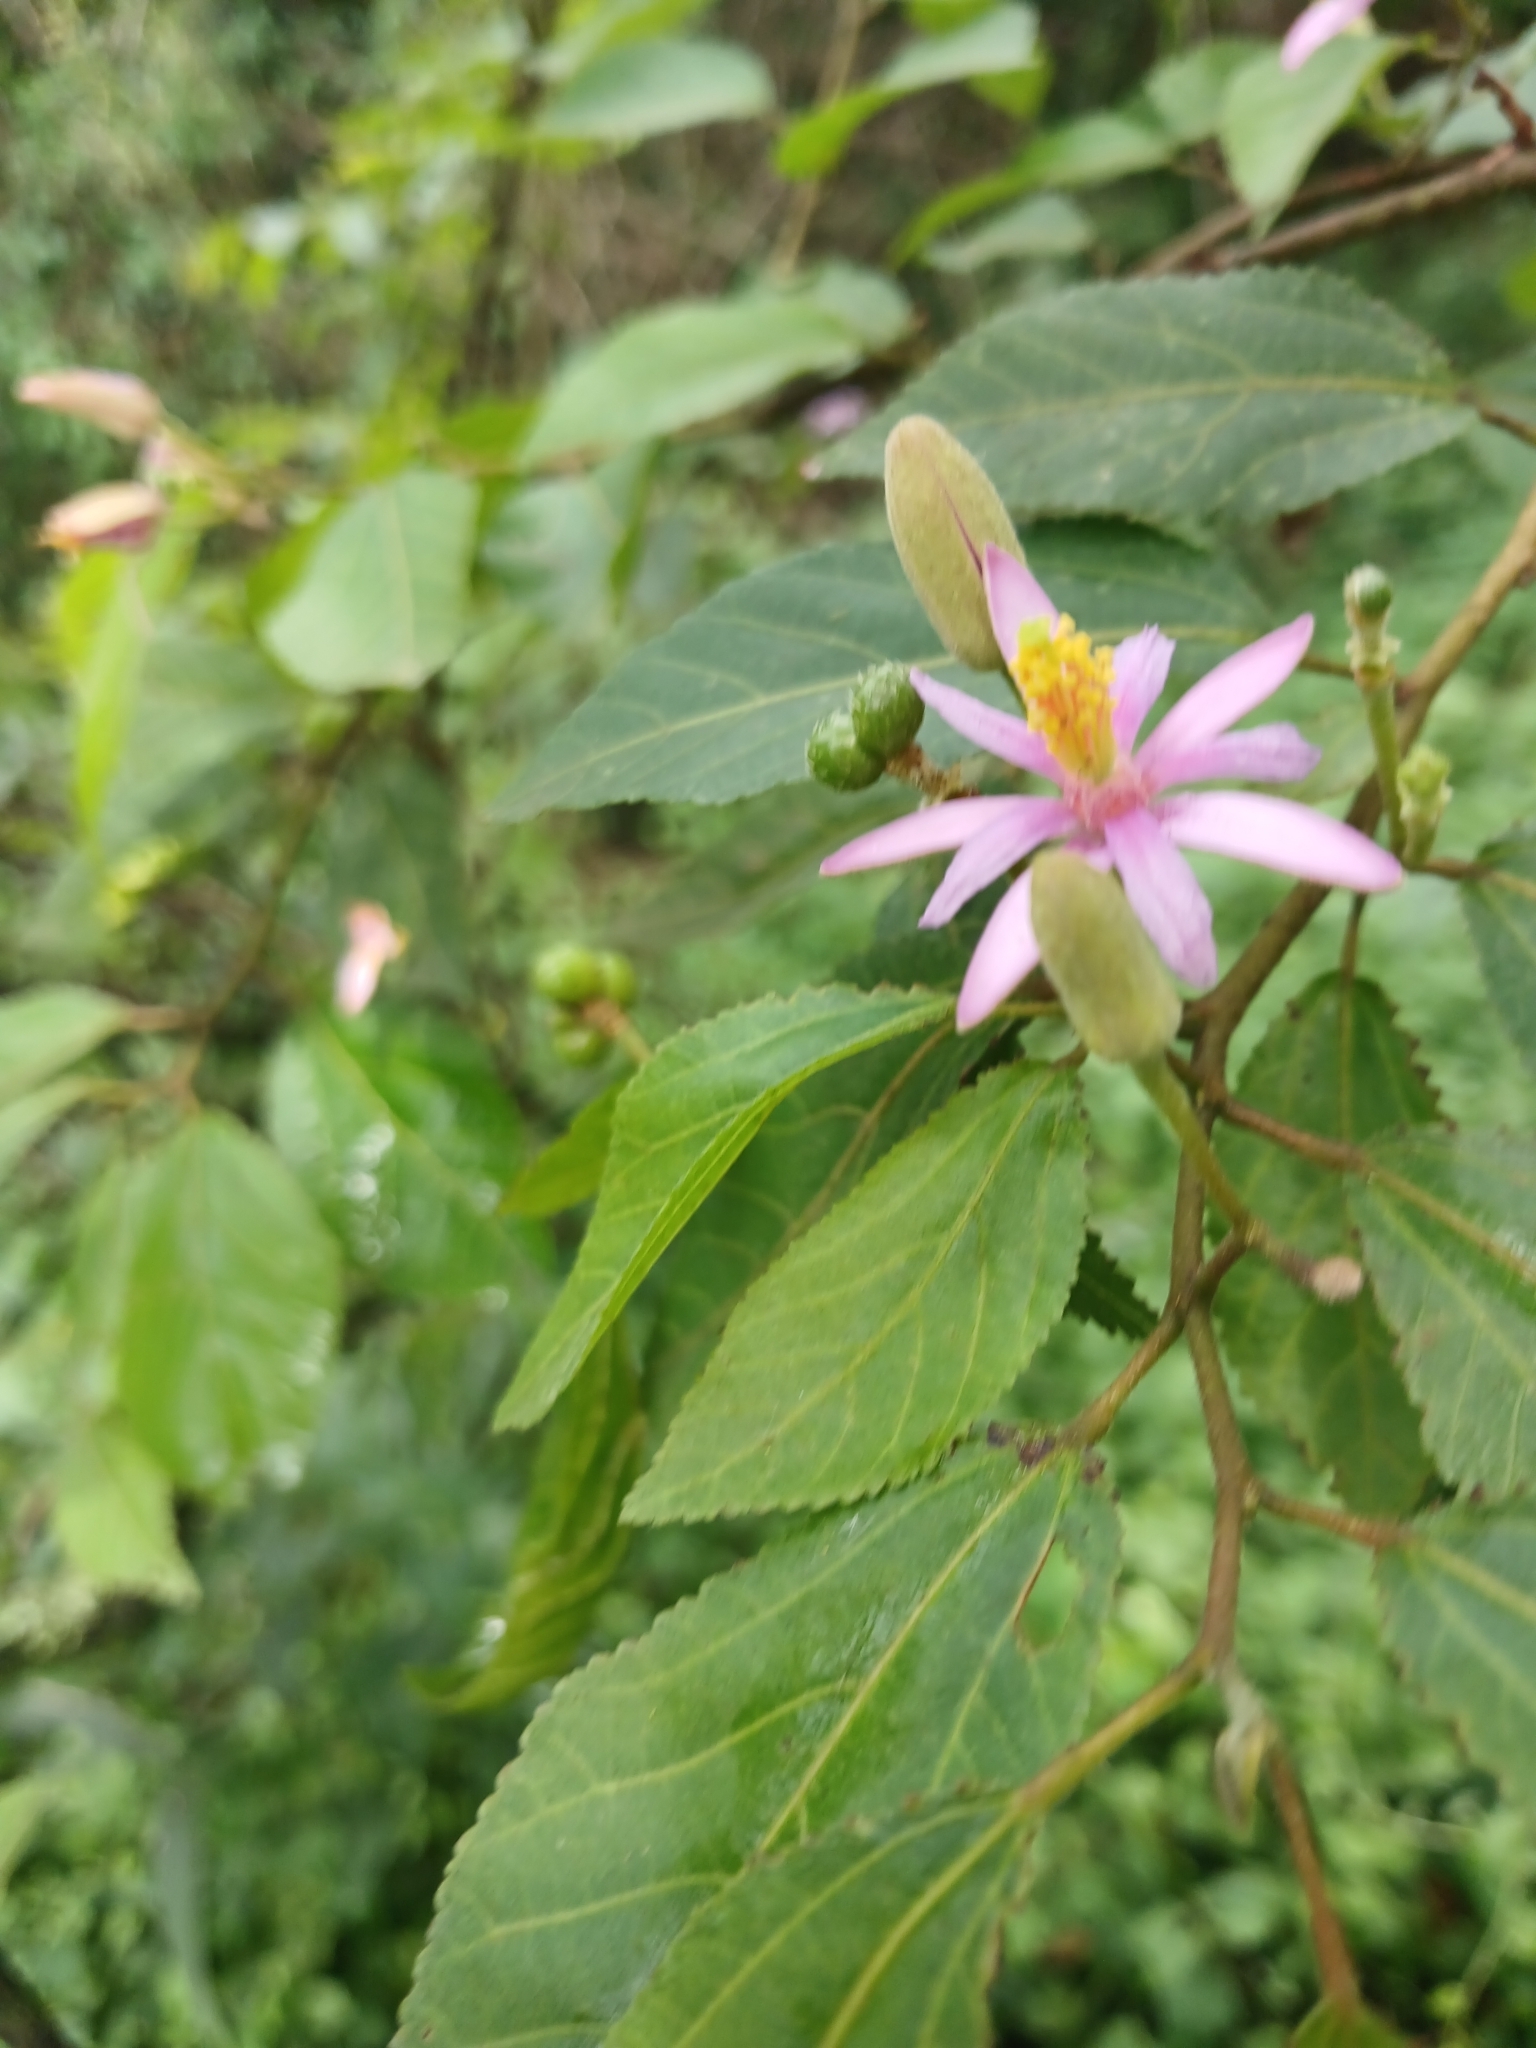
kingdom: Plantae
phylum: Tracheophyta
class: Magnoliopsida
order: Malvales
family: Malvaceae
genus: Grewia
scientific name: Grewia occidentalis
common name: Crossberry
